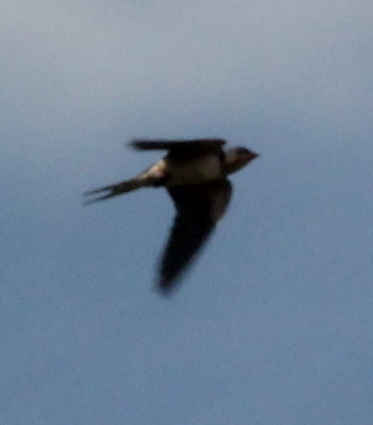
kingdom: Animalia
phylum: Chordata
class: Aves
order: Passeriformes
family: Hirundinidae
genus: Hirundo
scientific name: Hirundo rustica
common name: Barn swallow
